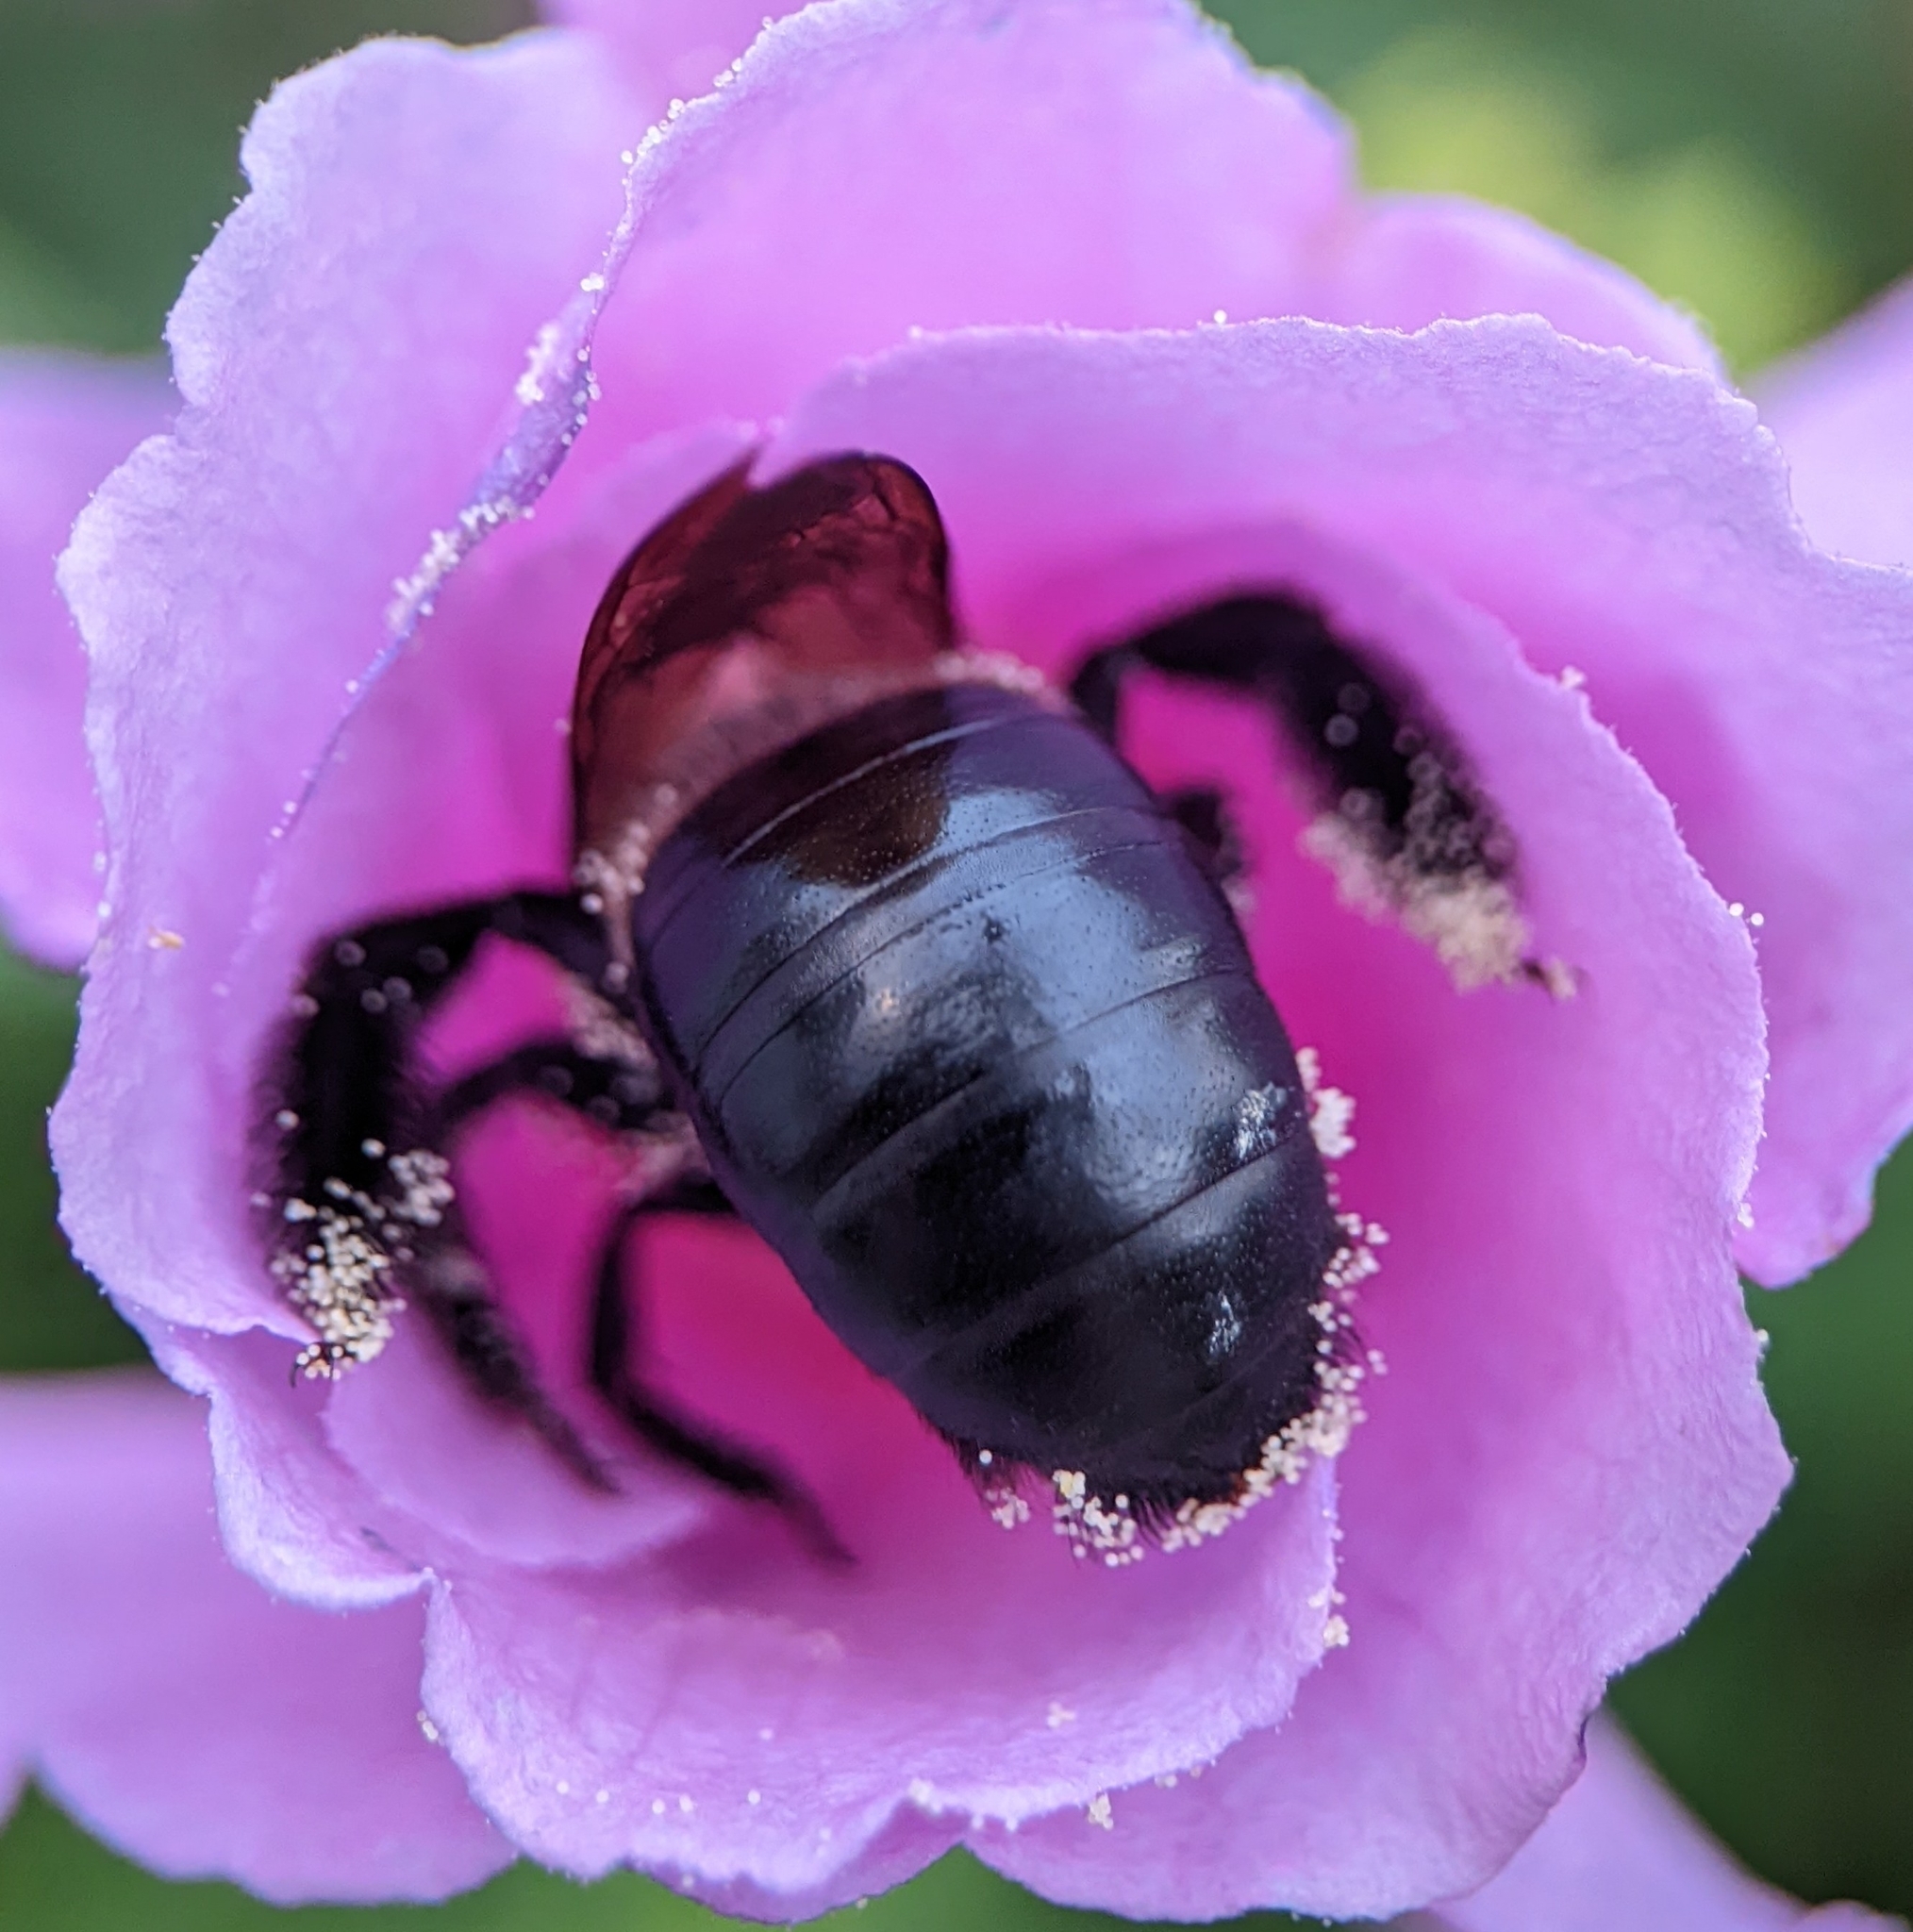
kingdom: Animalia
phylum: Arthropoda
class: Insecta
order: Hymenoptera
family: Apidae
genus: Xylocopa
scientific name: Xylocopa virginica
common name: Carpenter bee
